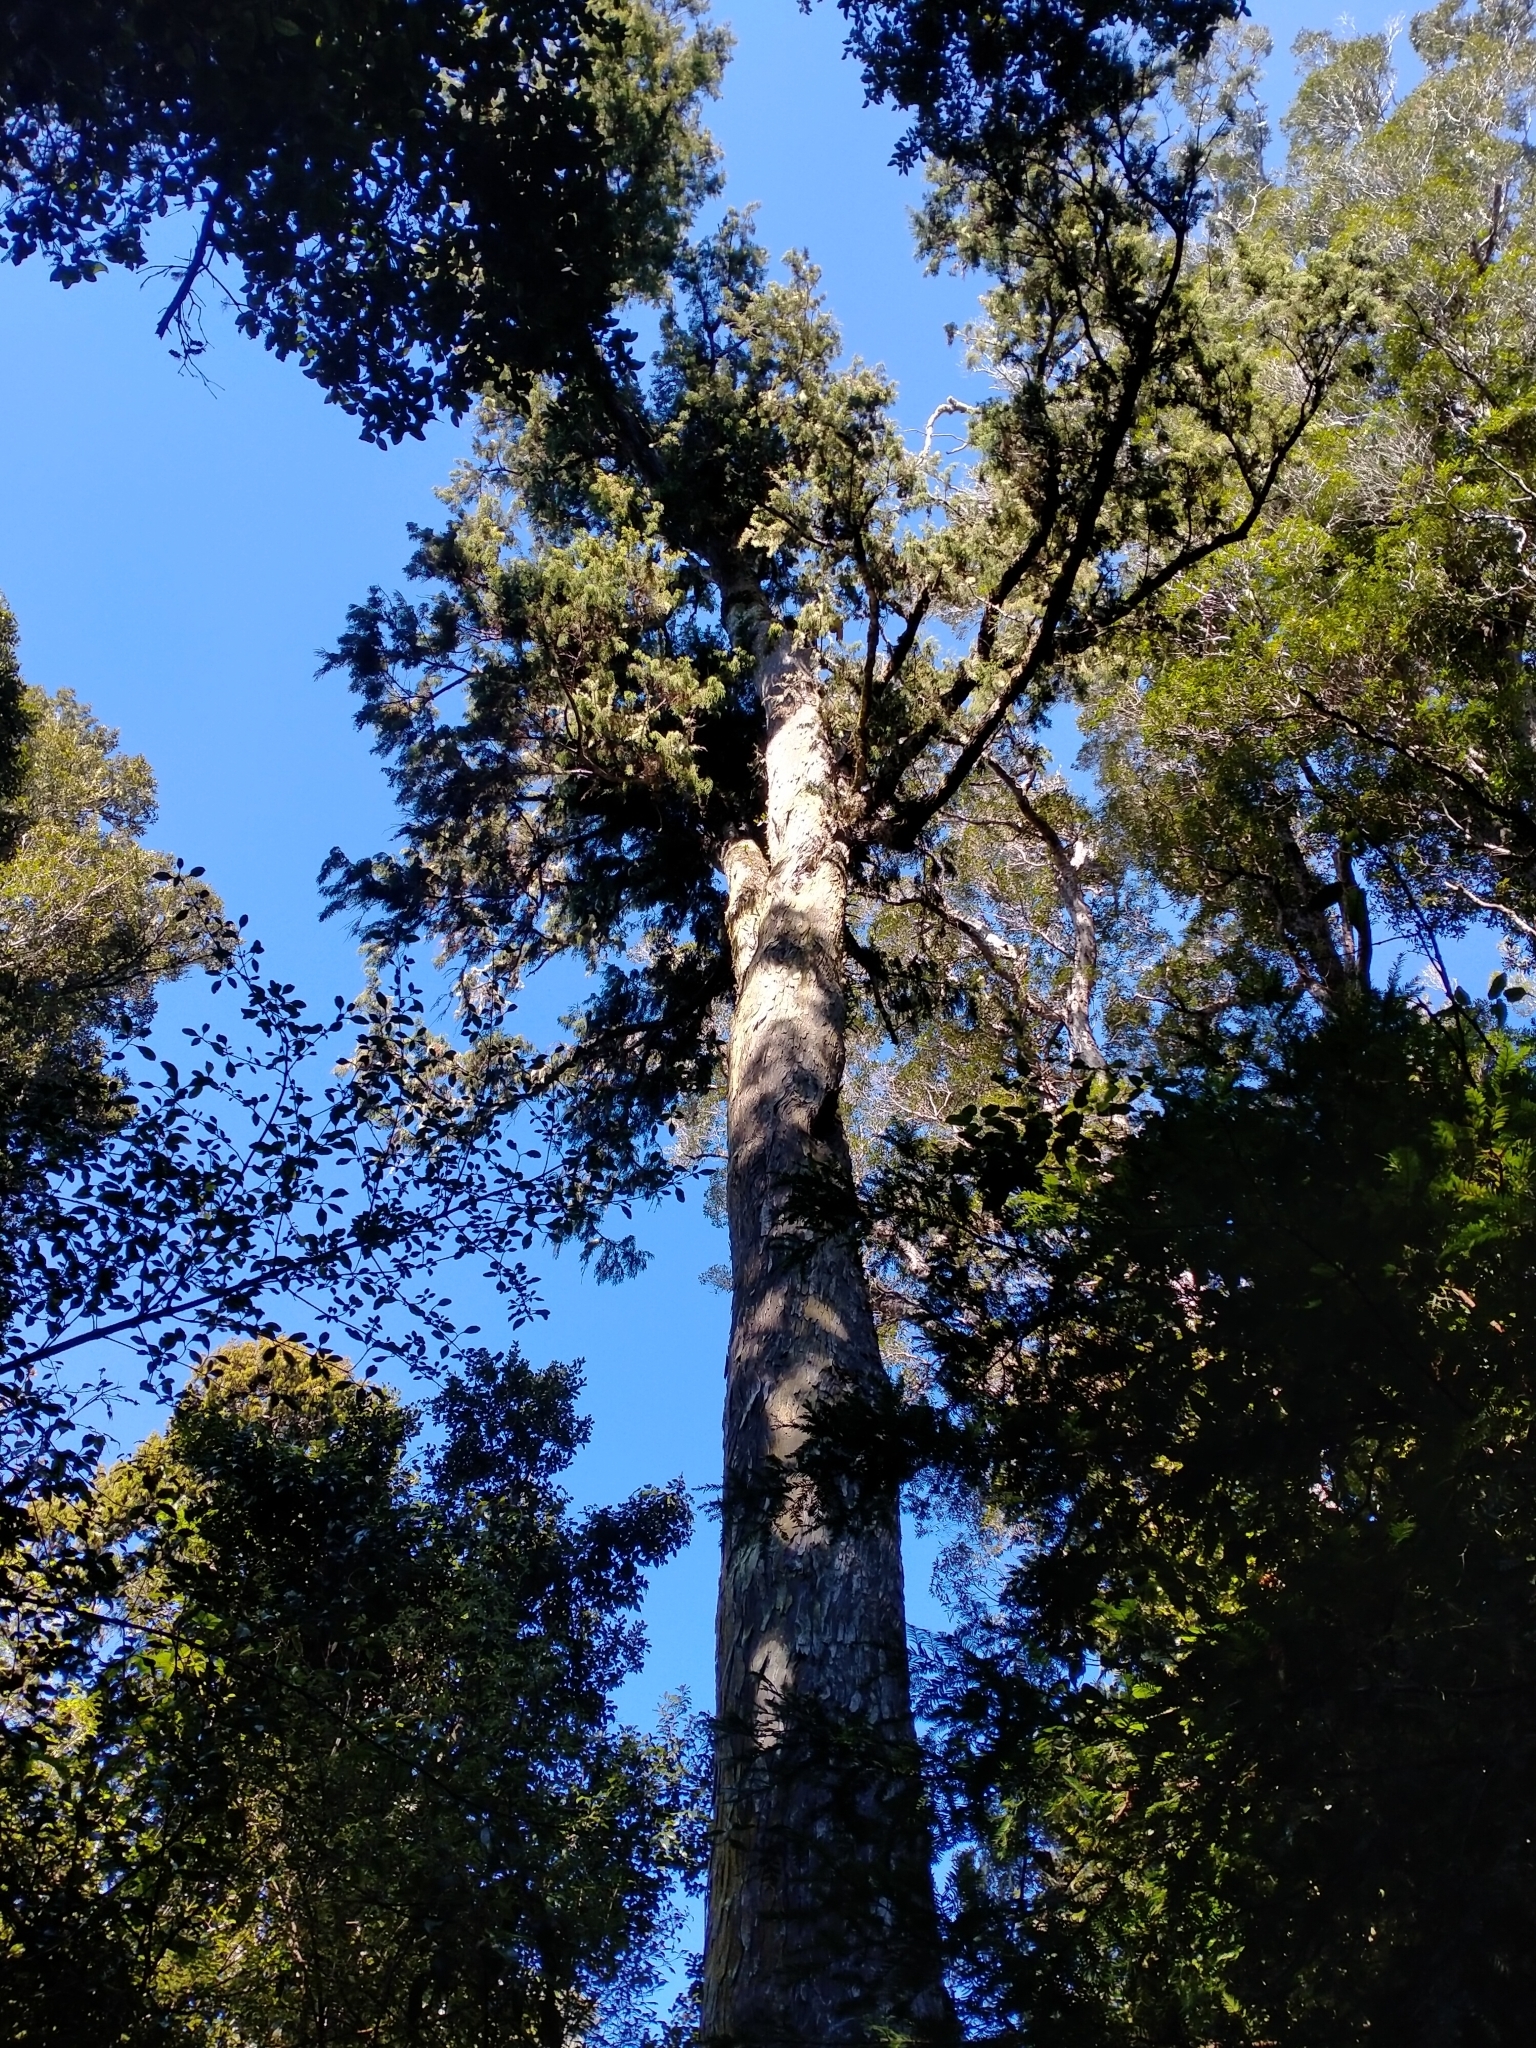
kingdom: Plantae
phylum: Tracheophyta
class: Pinopsida
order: Pinales
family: Podocarpaceae
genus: Dacrydium
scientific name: Dacrydium cupressinum
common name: Red pine
